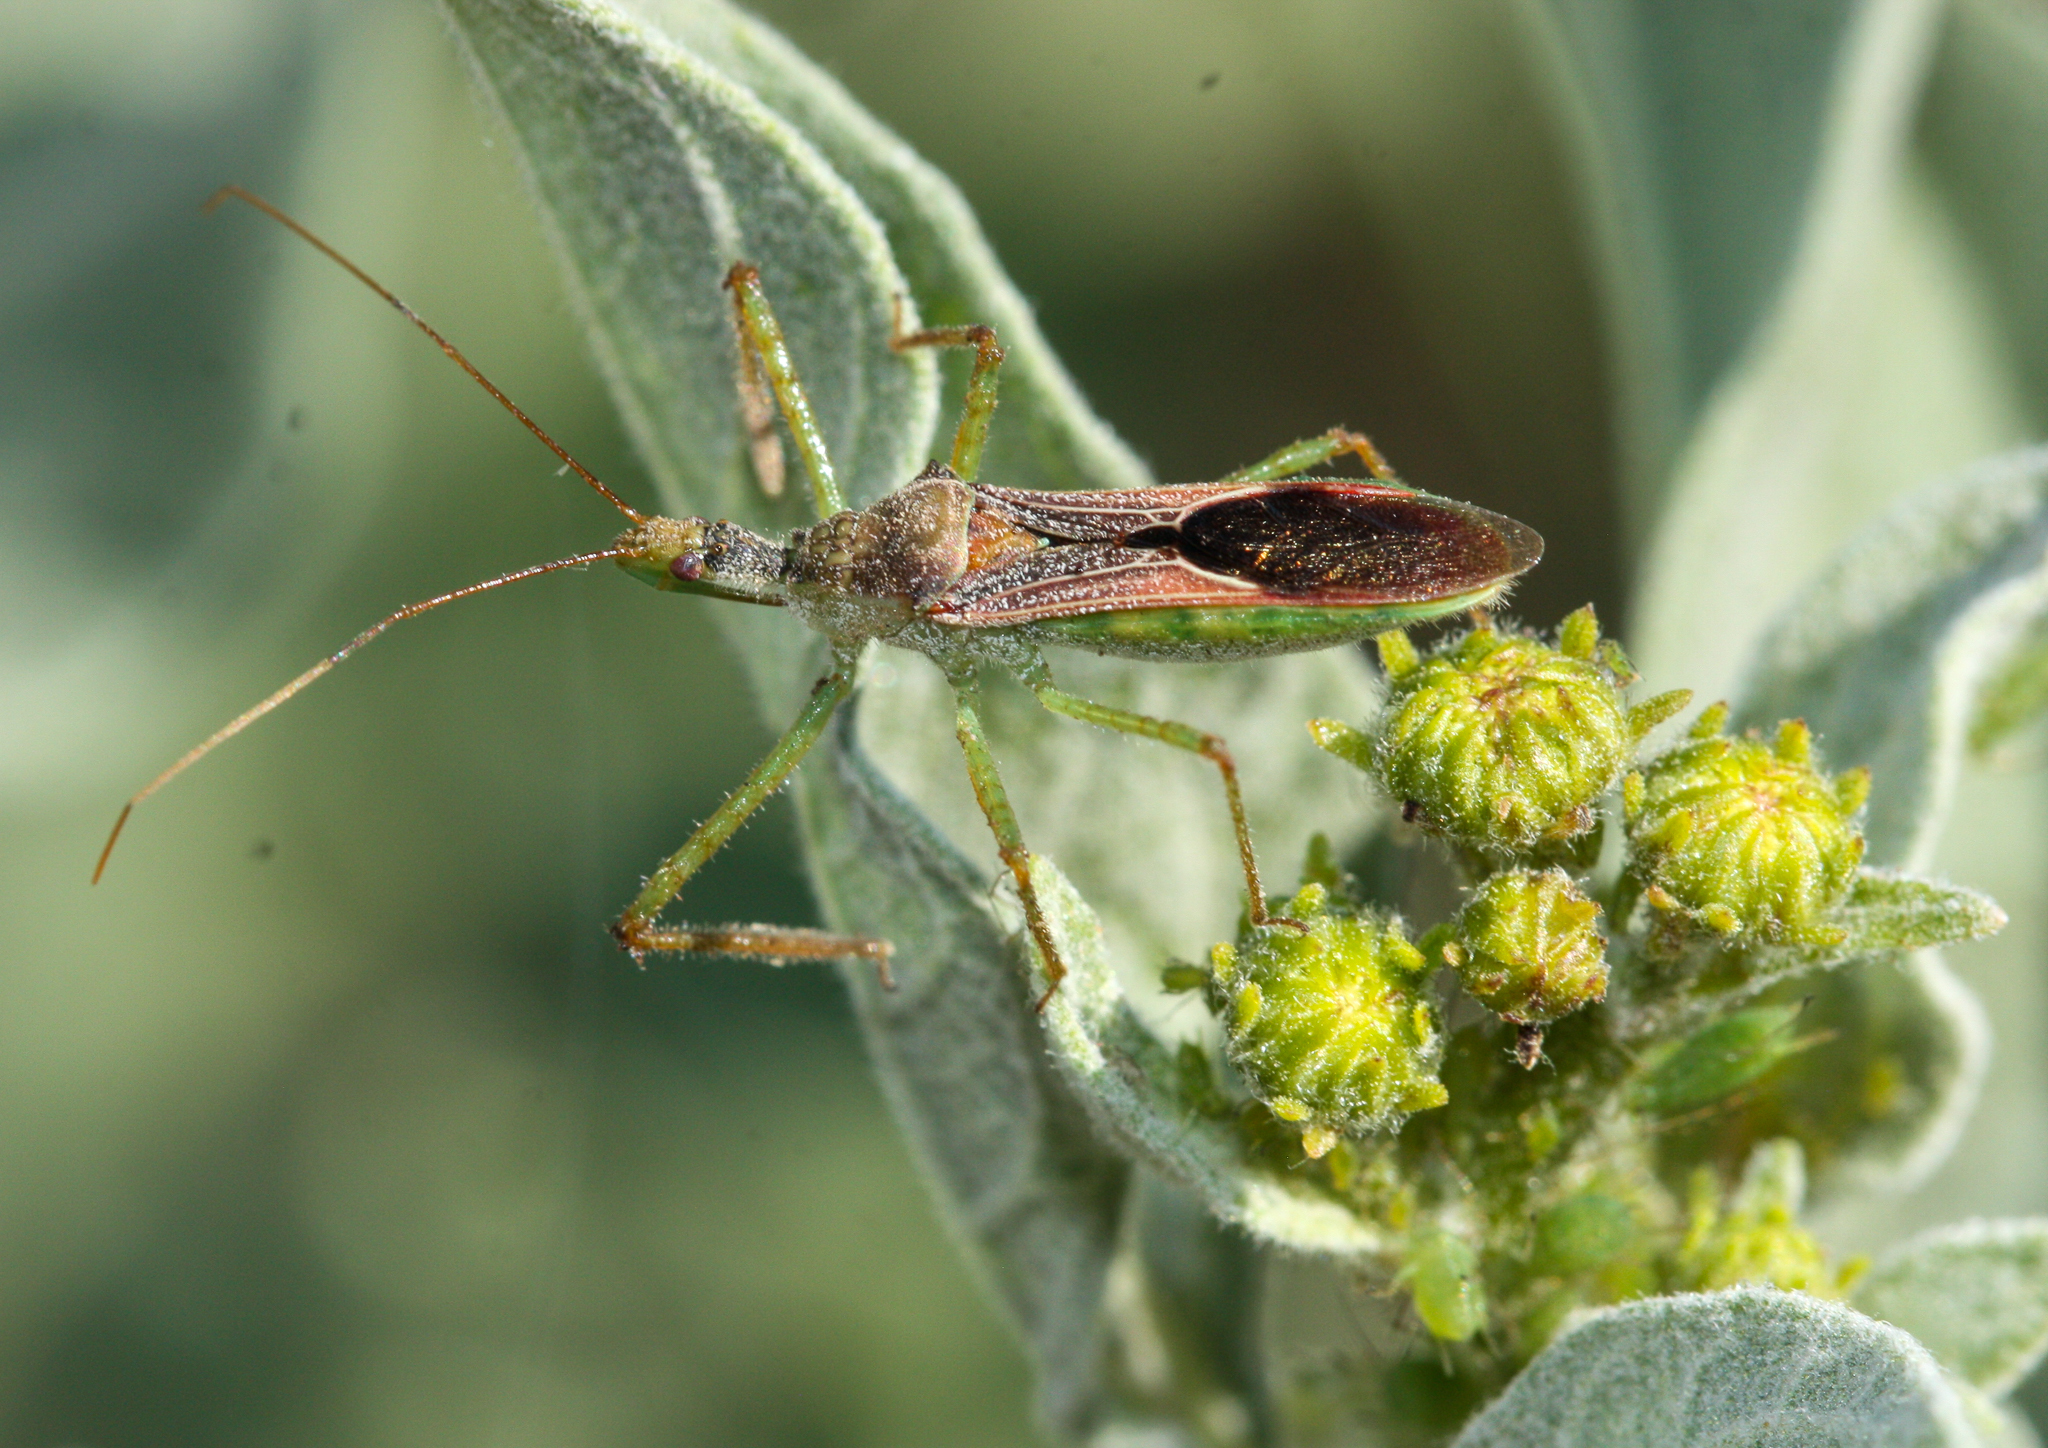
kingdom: Animalia
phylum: Arthropoda
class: Insecta
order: Hemiptera
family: Reduviidae
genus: Zelus
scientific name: Zelus renardii
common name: Assassin bug
